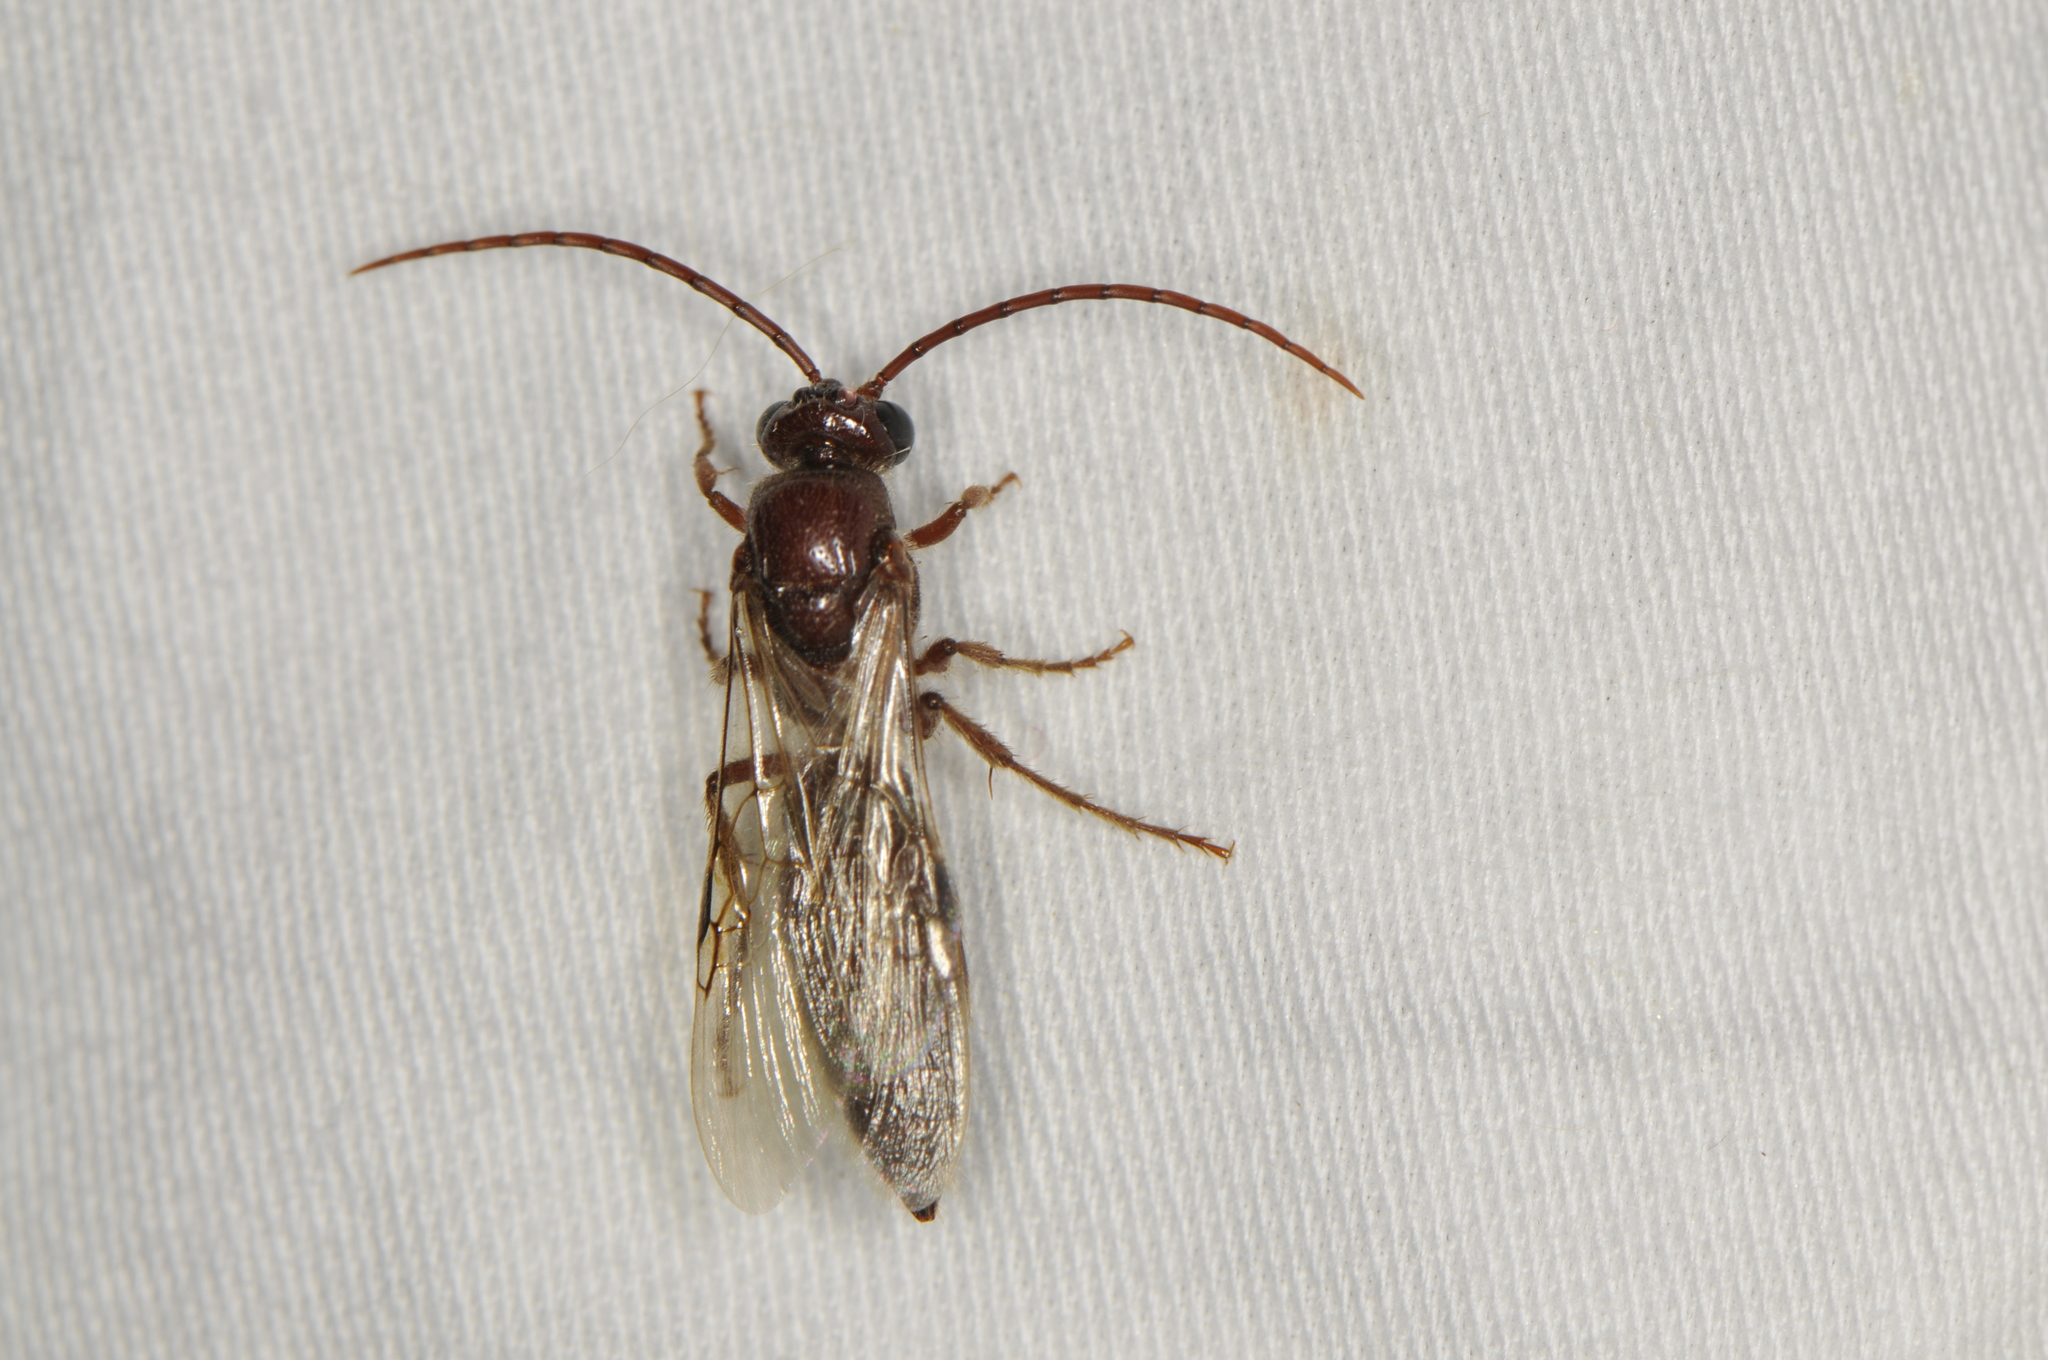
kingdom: Animalia
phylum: Arthropoda
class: Insecta
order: Hymenoptera
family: Tiphiidae
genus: Colocistis
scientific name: Colocistis castanea
